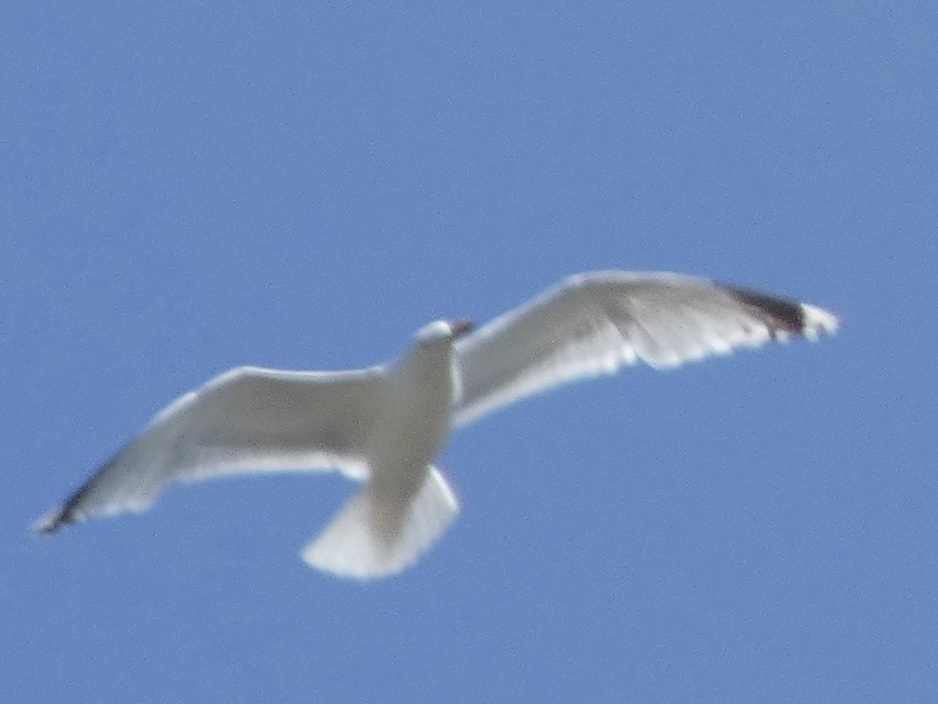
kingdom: Animalia
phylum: Chordata
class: Aves
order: Charadriiformes
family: Laridae
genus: Larus
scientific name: Larus argentatus
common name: Herring gull
